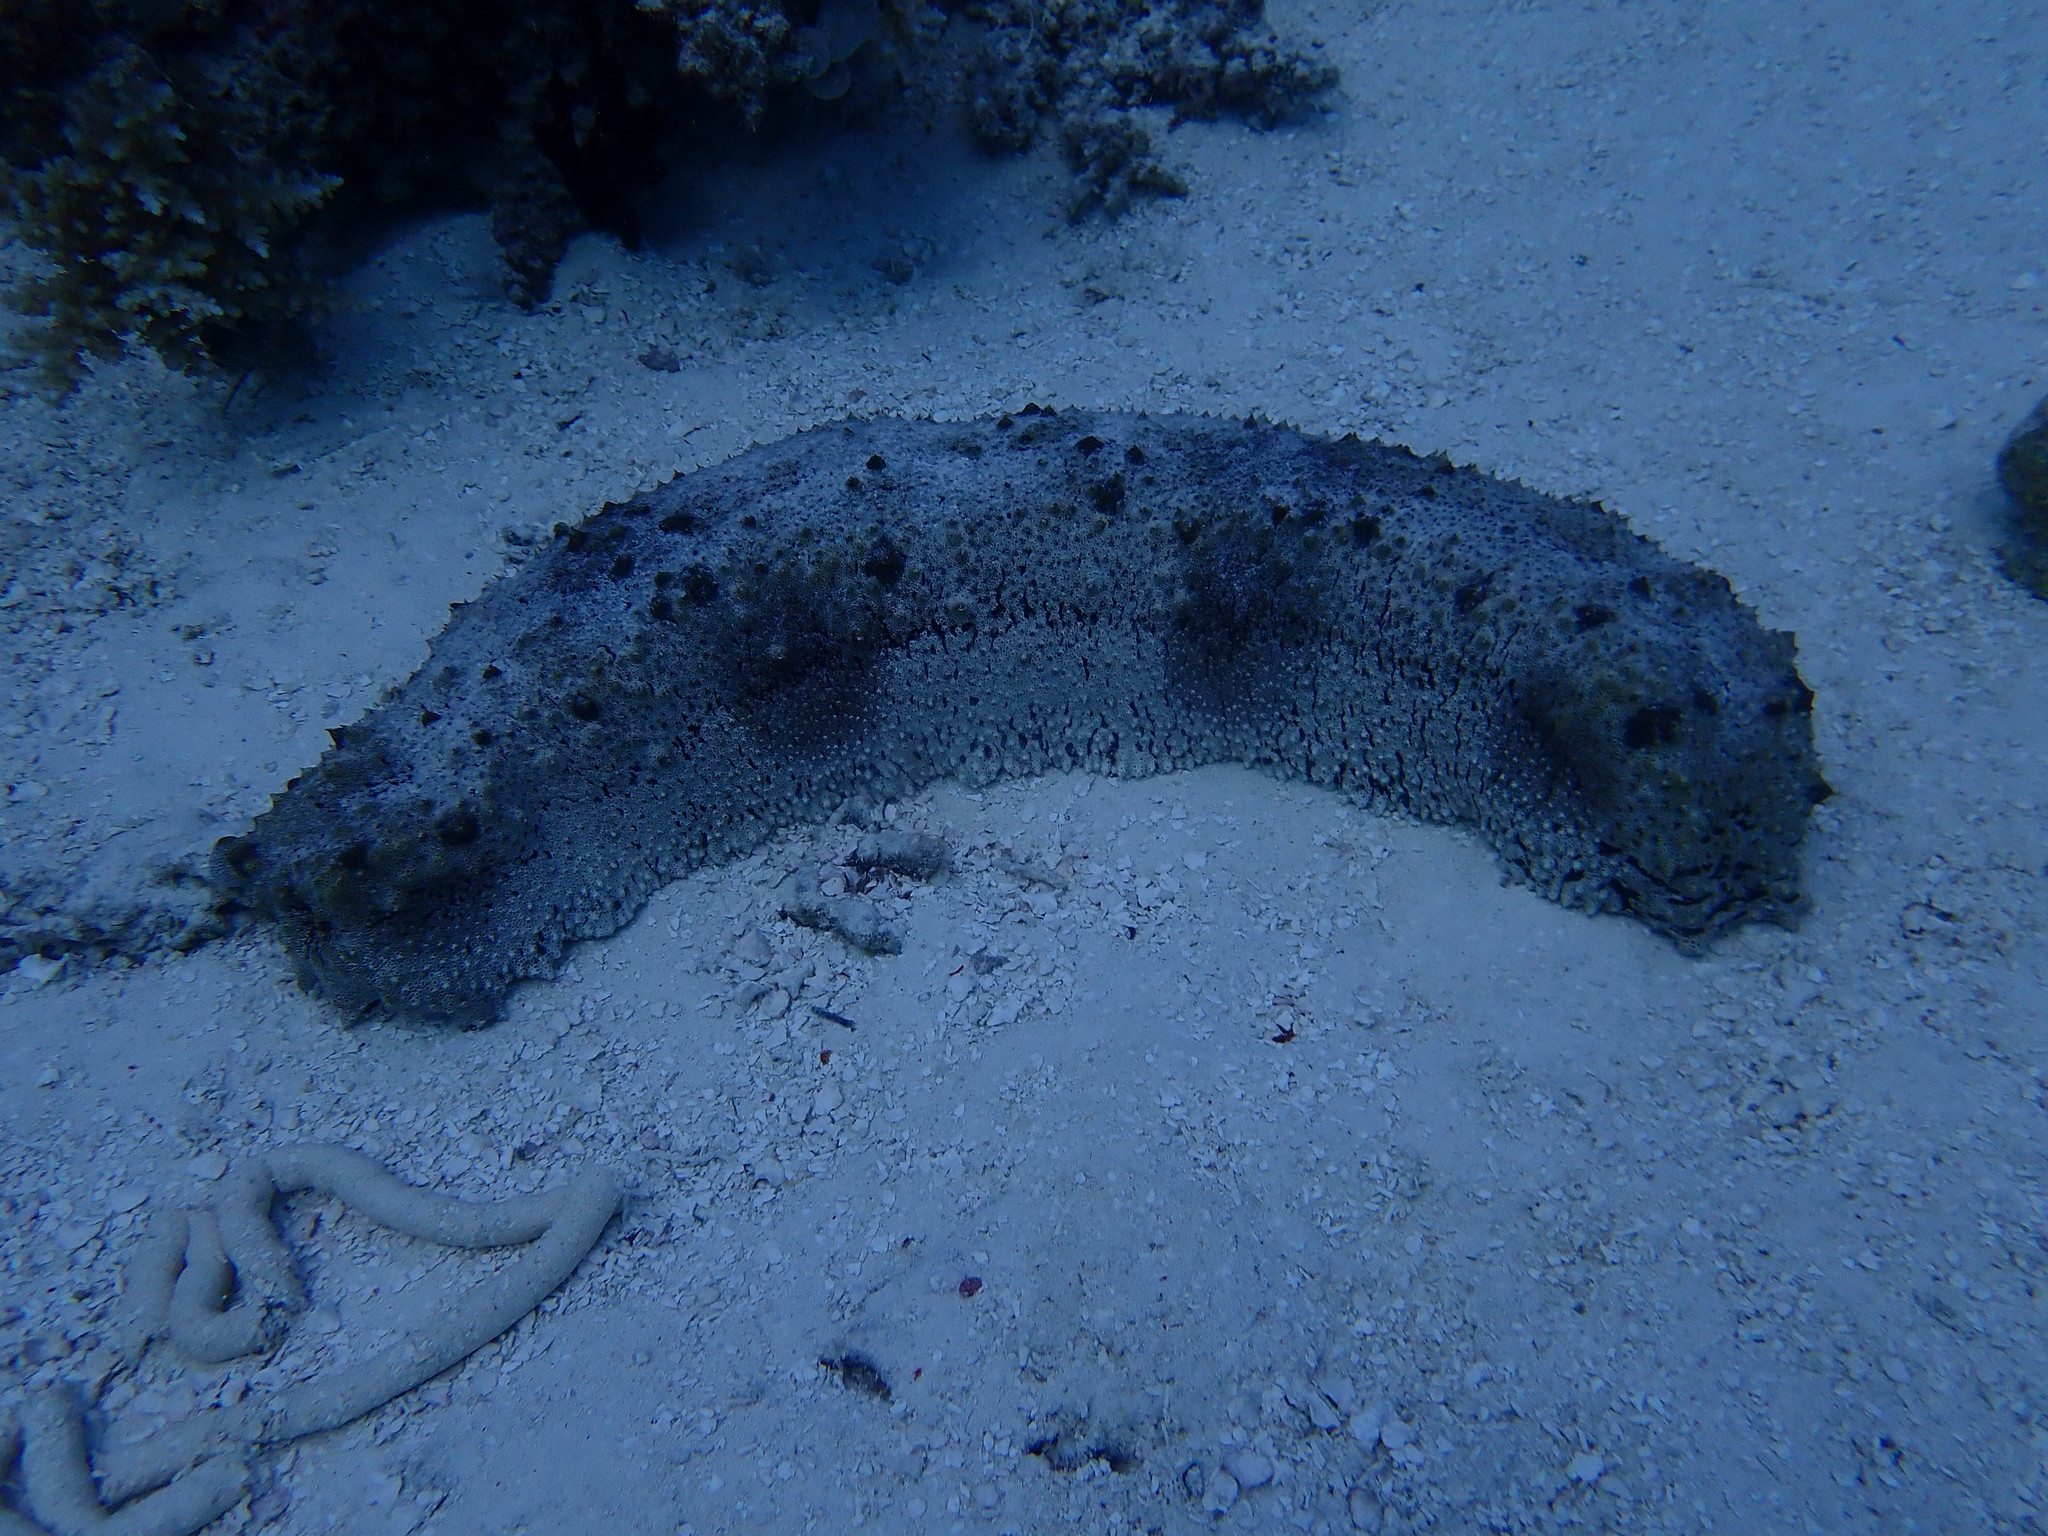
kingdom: Animalia
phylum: Echinodermata
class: Holothuroidea
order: Synallactida
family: Stichopodidae
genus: Thelenota
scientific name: Thelenota anax
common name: Amberfish
